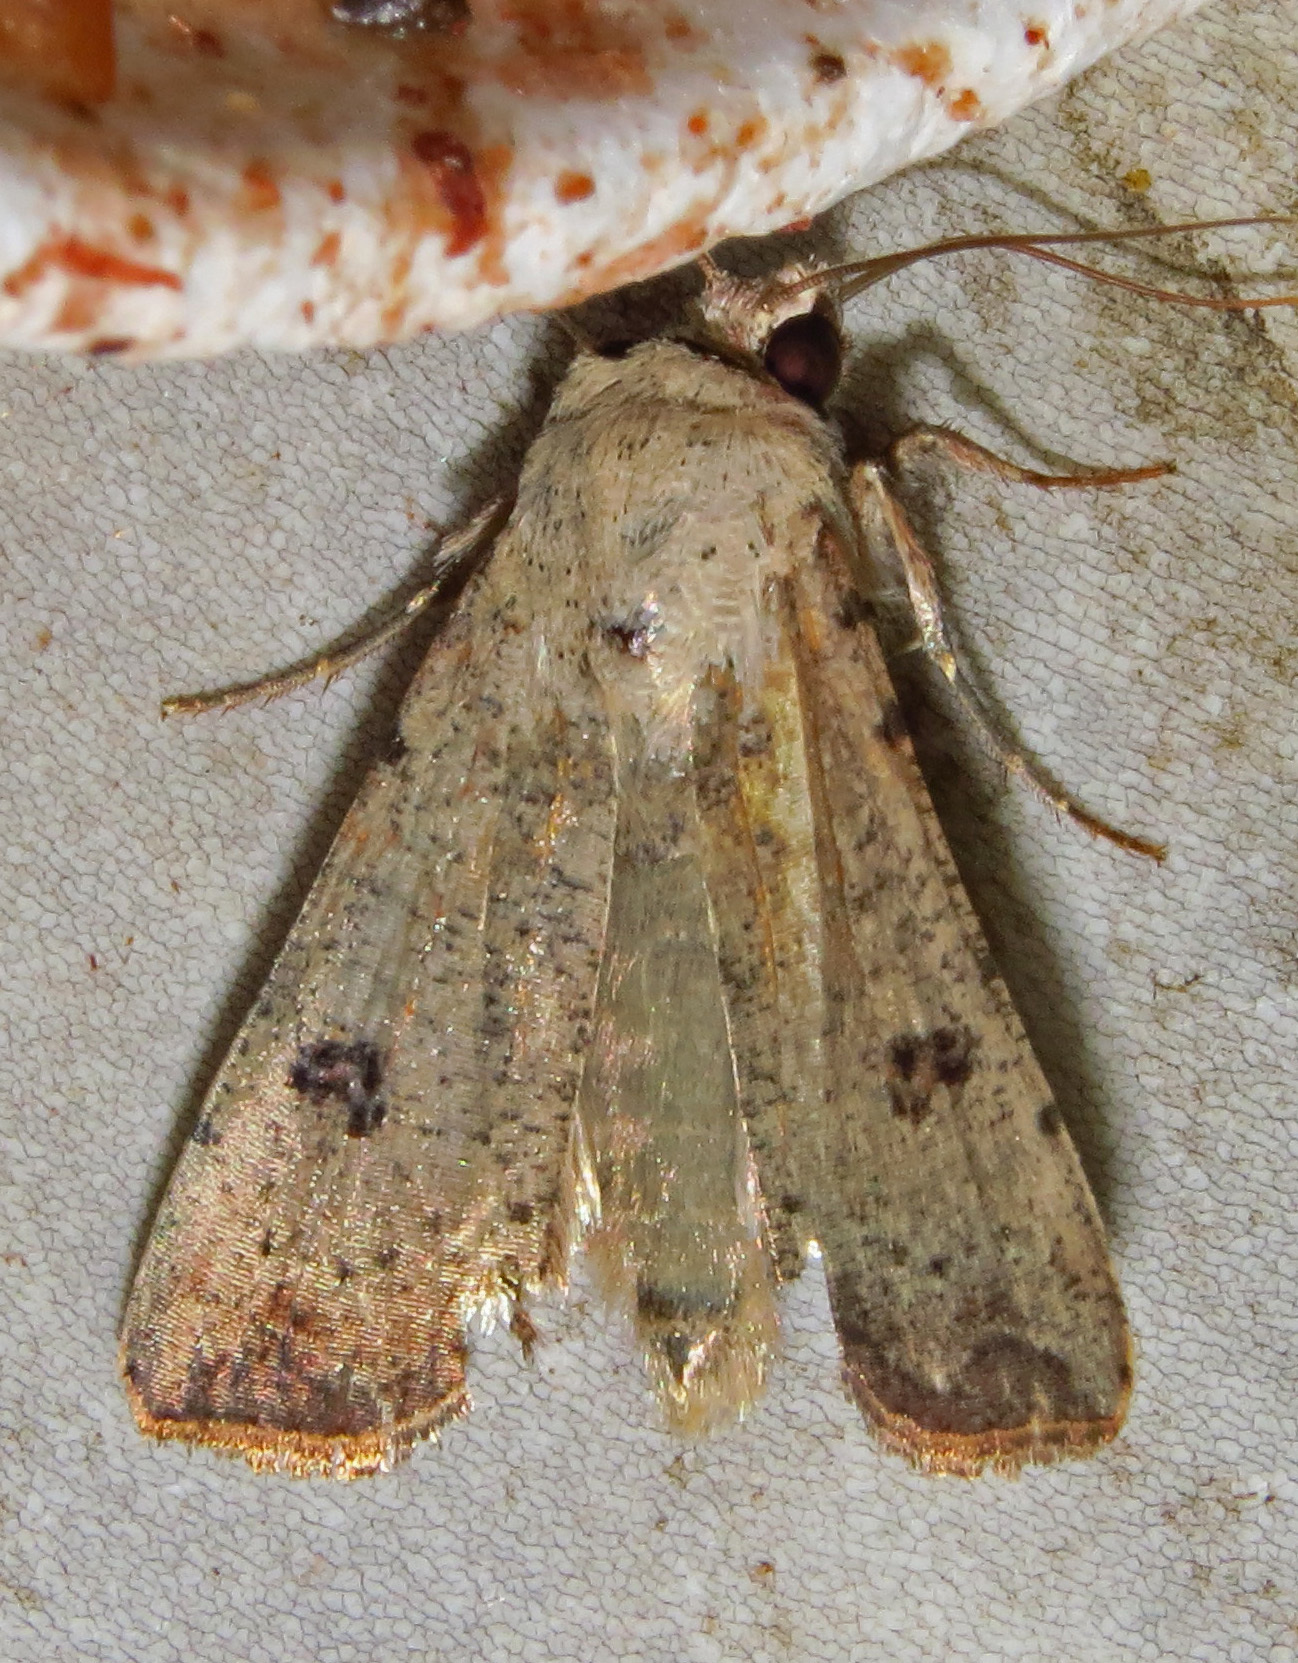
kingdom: Animalia
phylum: Arthropoda
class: Insecta
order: Lepidoptera
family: Noctuidae
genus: Anicla
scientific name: Anicla infecta
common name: Green cutworm
